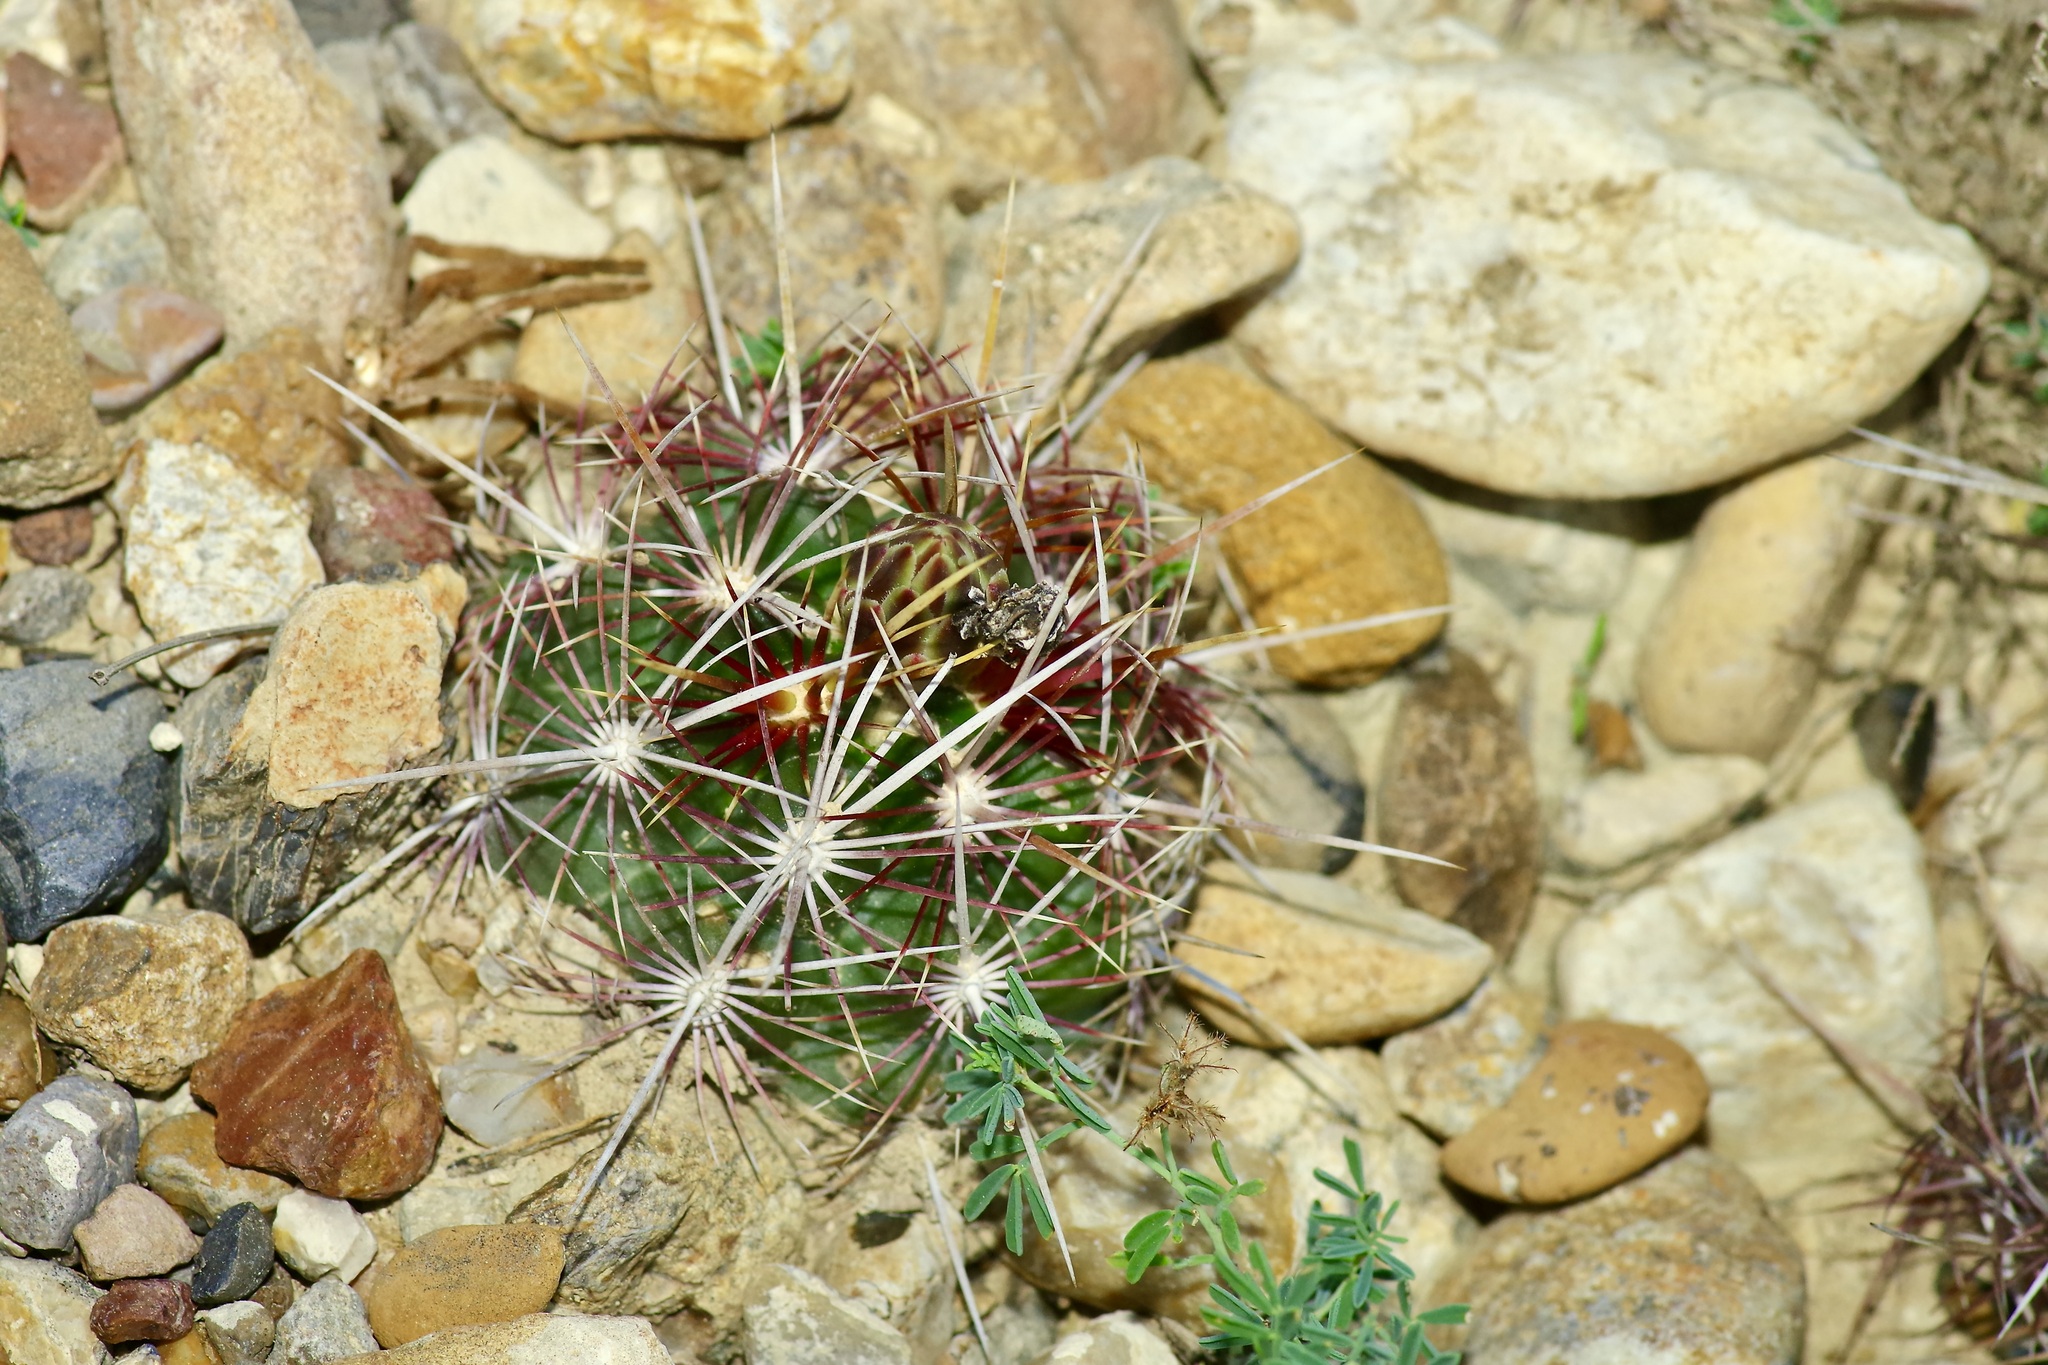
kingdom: Plantae
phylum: Tracheophyta
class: Magnoliopsida
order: Caryophyllales
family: Cactaceae
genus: Thelocactus
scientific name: Thelocactus bicolor
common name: Glory of texas
